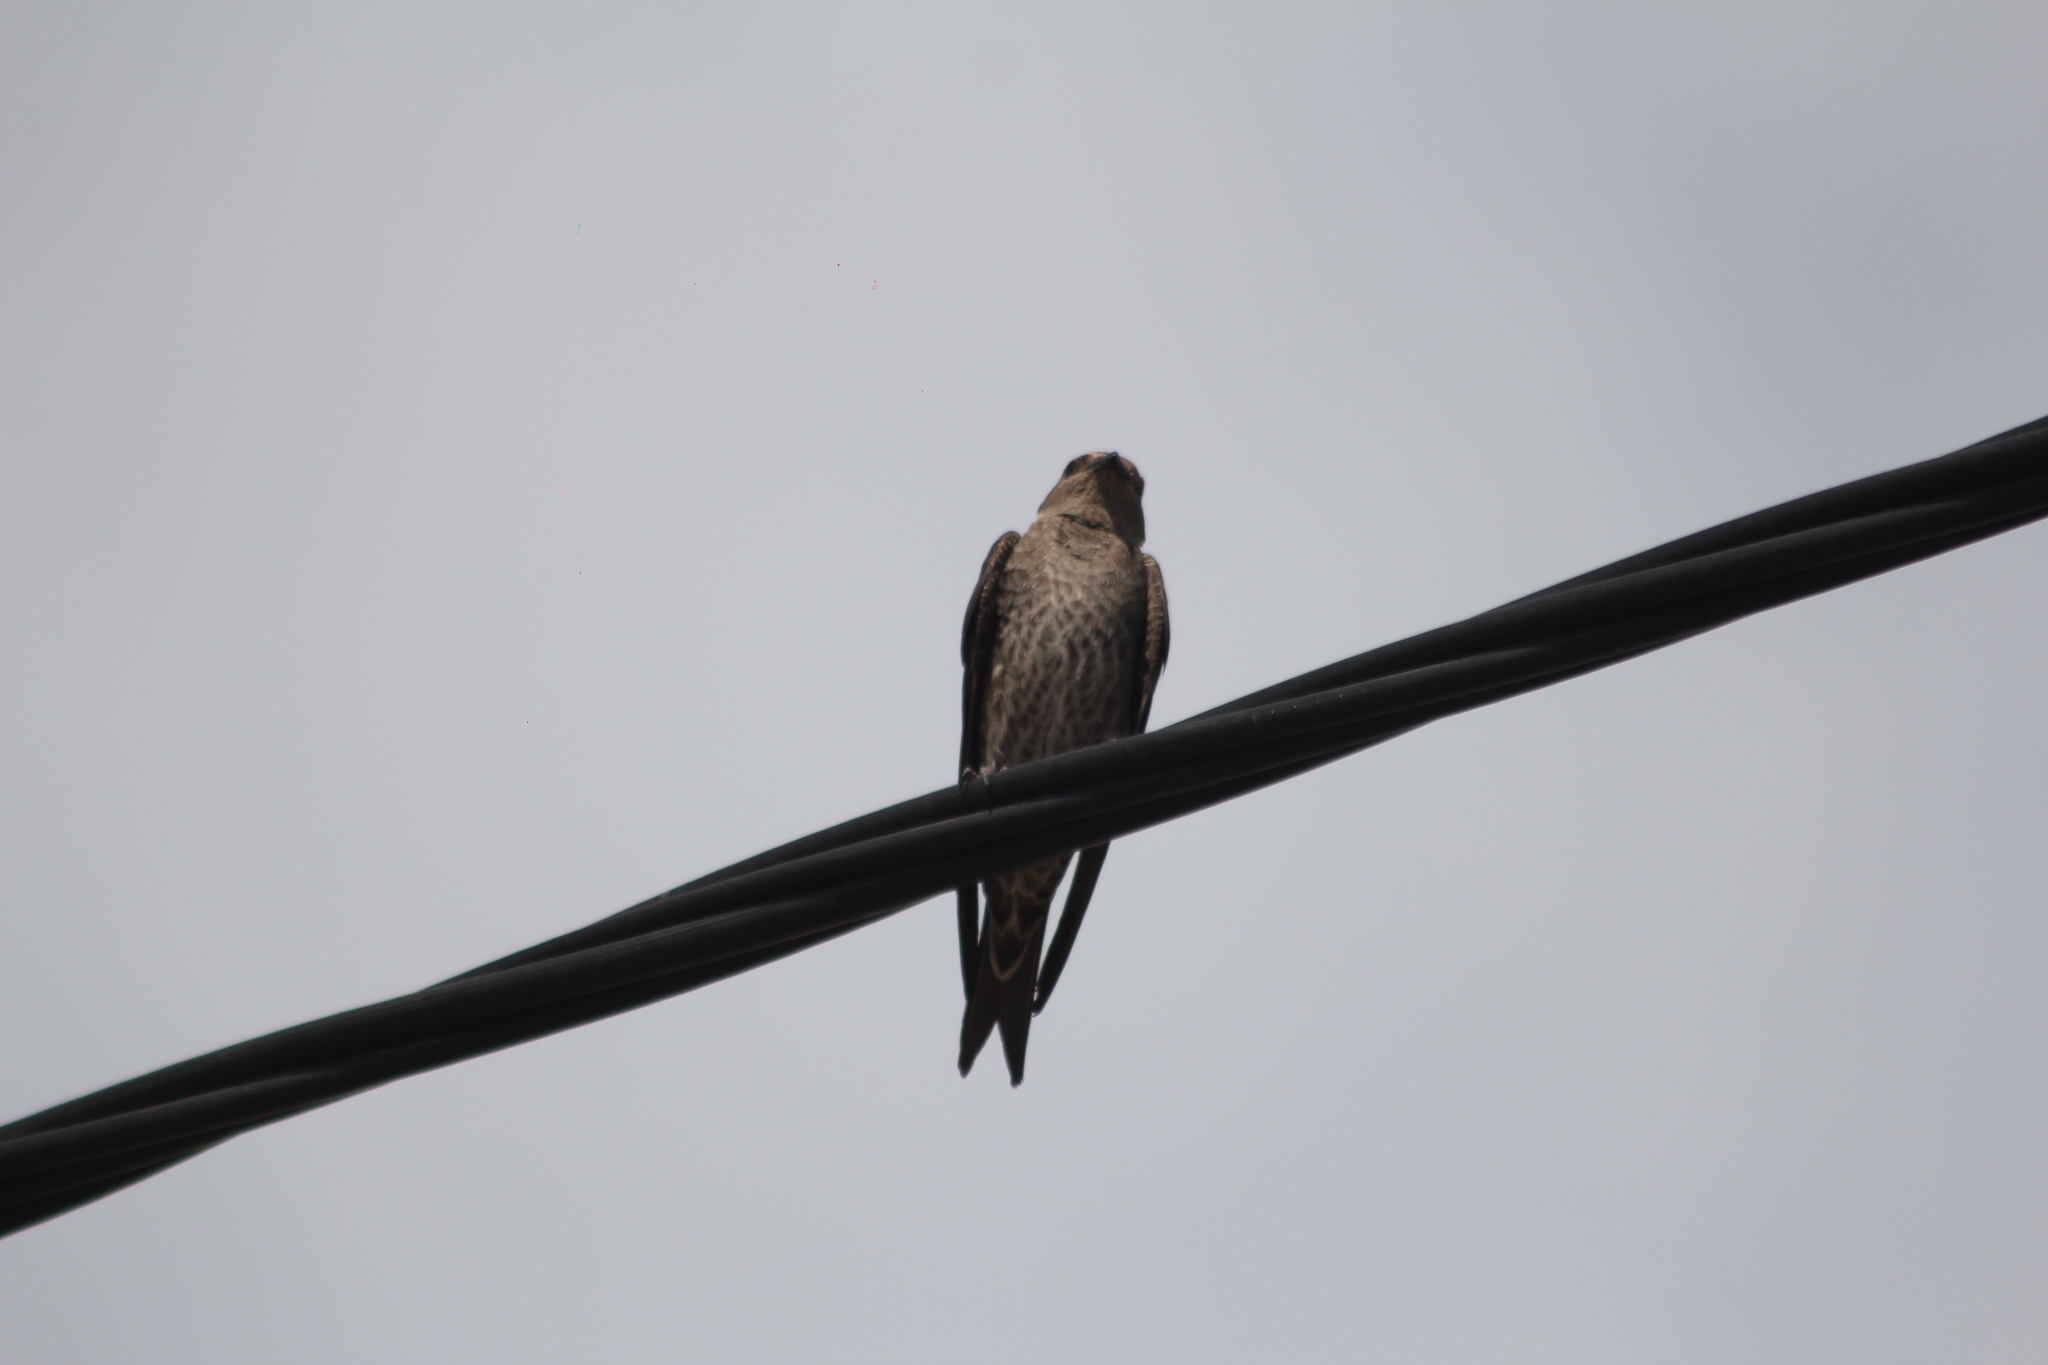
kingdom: Animalia
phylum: Chordata
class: Aves
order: Passeriformes
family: Hirundinidae
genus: Progne
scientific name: Progne elegans
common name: Southern martin
